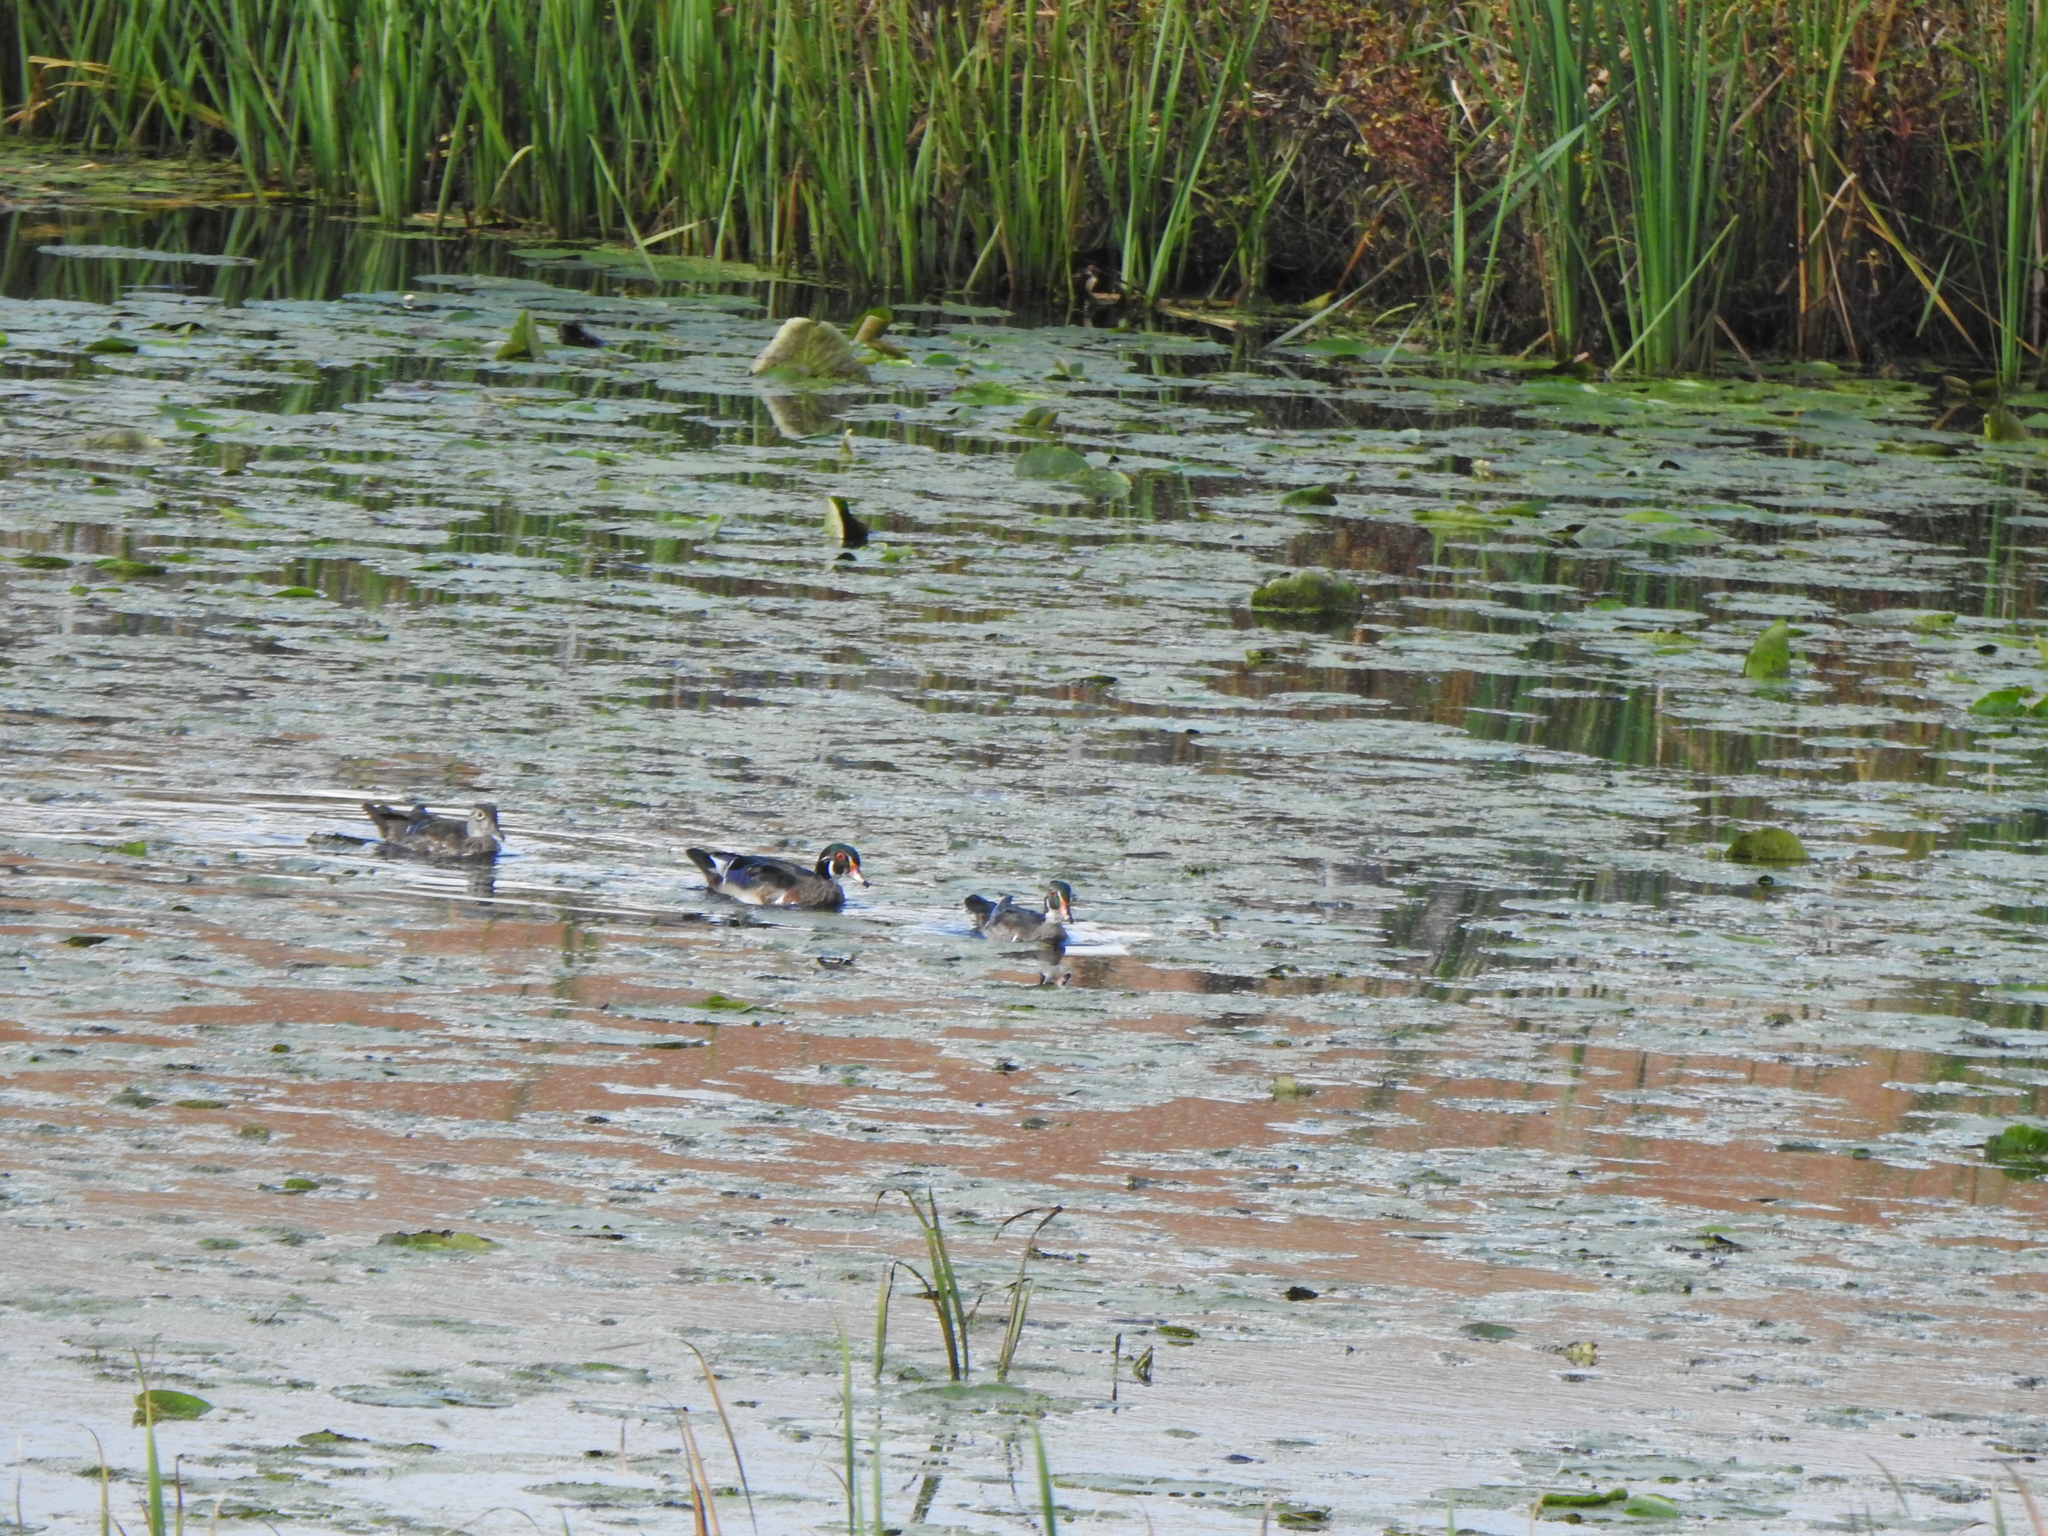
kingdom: Animalia
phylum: Chordata
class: Aves
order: Anseriformes
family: Anatidae
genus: Aix
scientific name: Aix sponsa
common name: Wood duck
